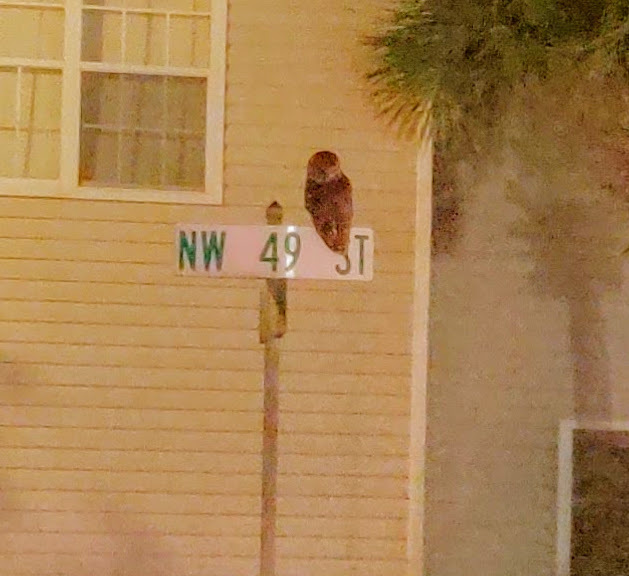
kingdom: Animalia
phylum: Chordata
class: Aves
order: Strigiformes
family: Strigidae
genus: Strix
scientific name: Strix varia
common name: Barred owl
